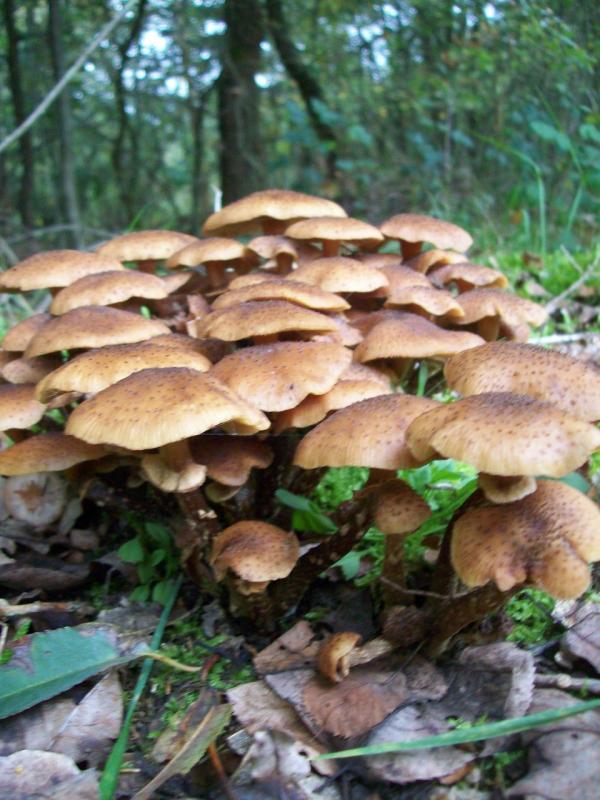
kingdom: Fungi
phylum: Basidiomycota
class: Agaricomycetes
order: Agaricales
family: Physalacriaceae
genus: Armillaria
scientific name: Armillaria mellea
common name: Honey fungus
